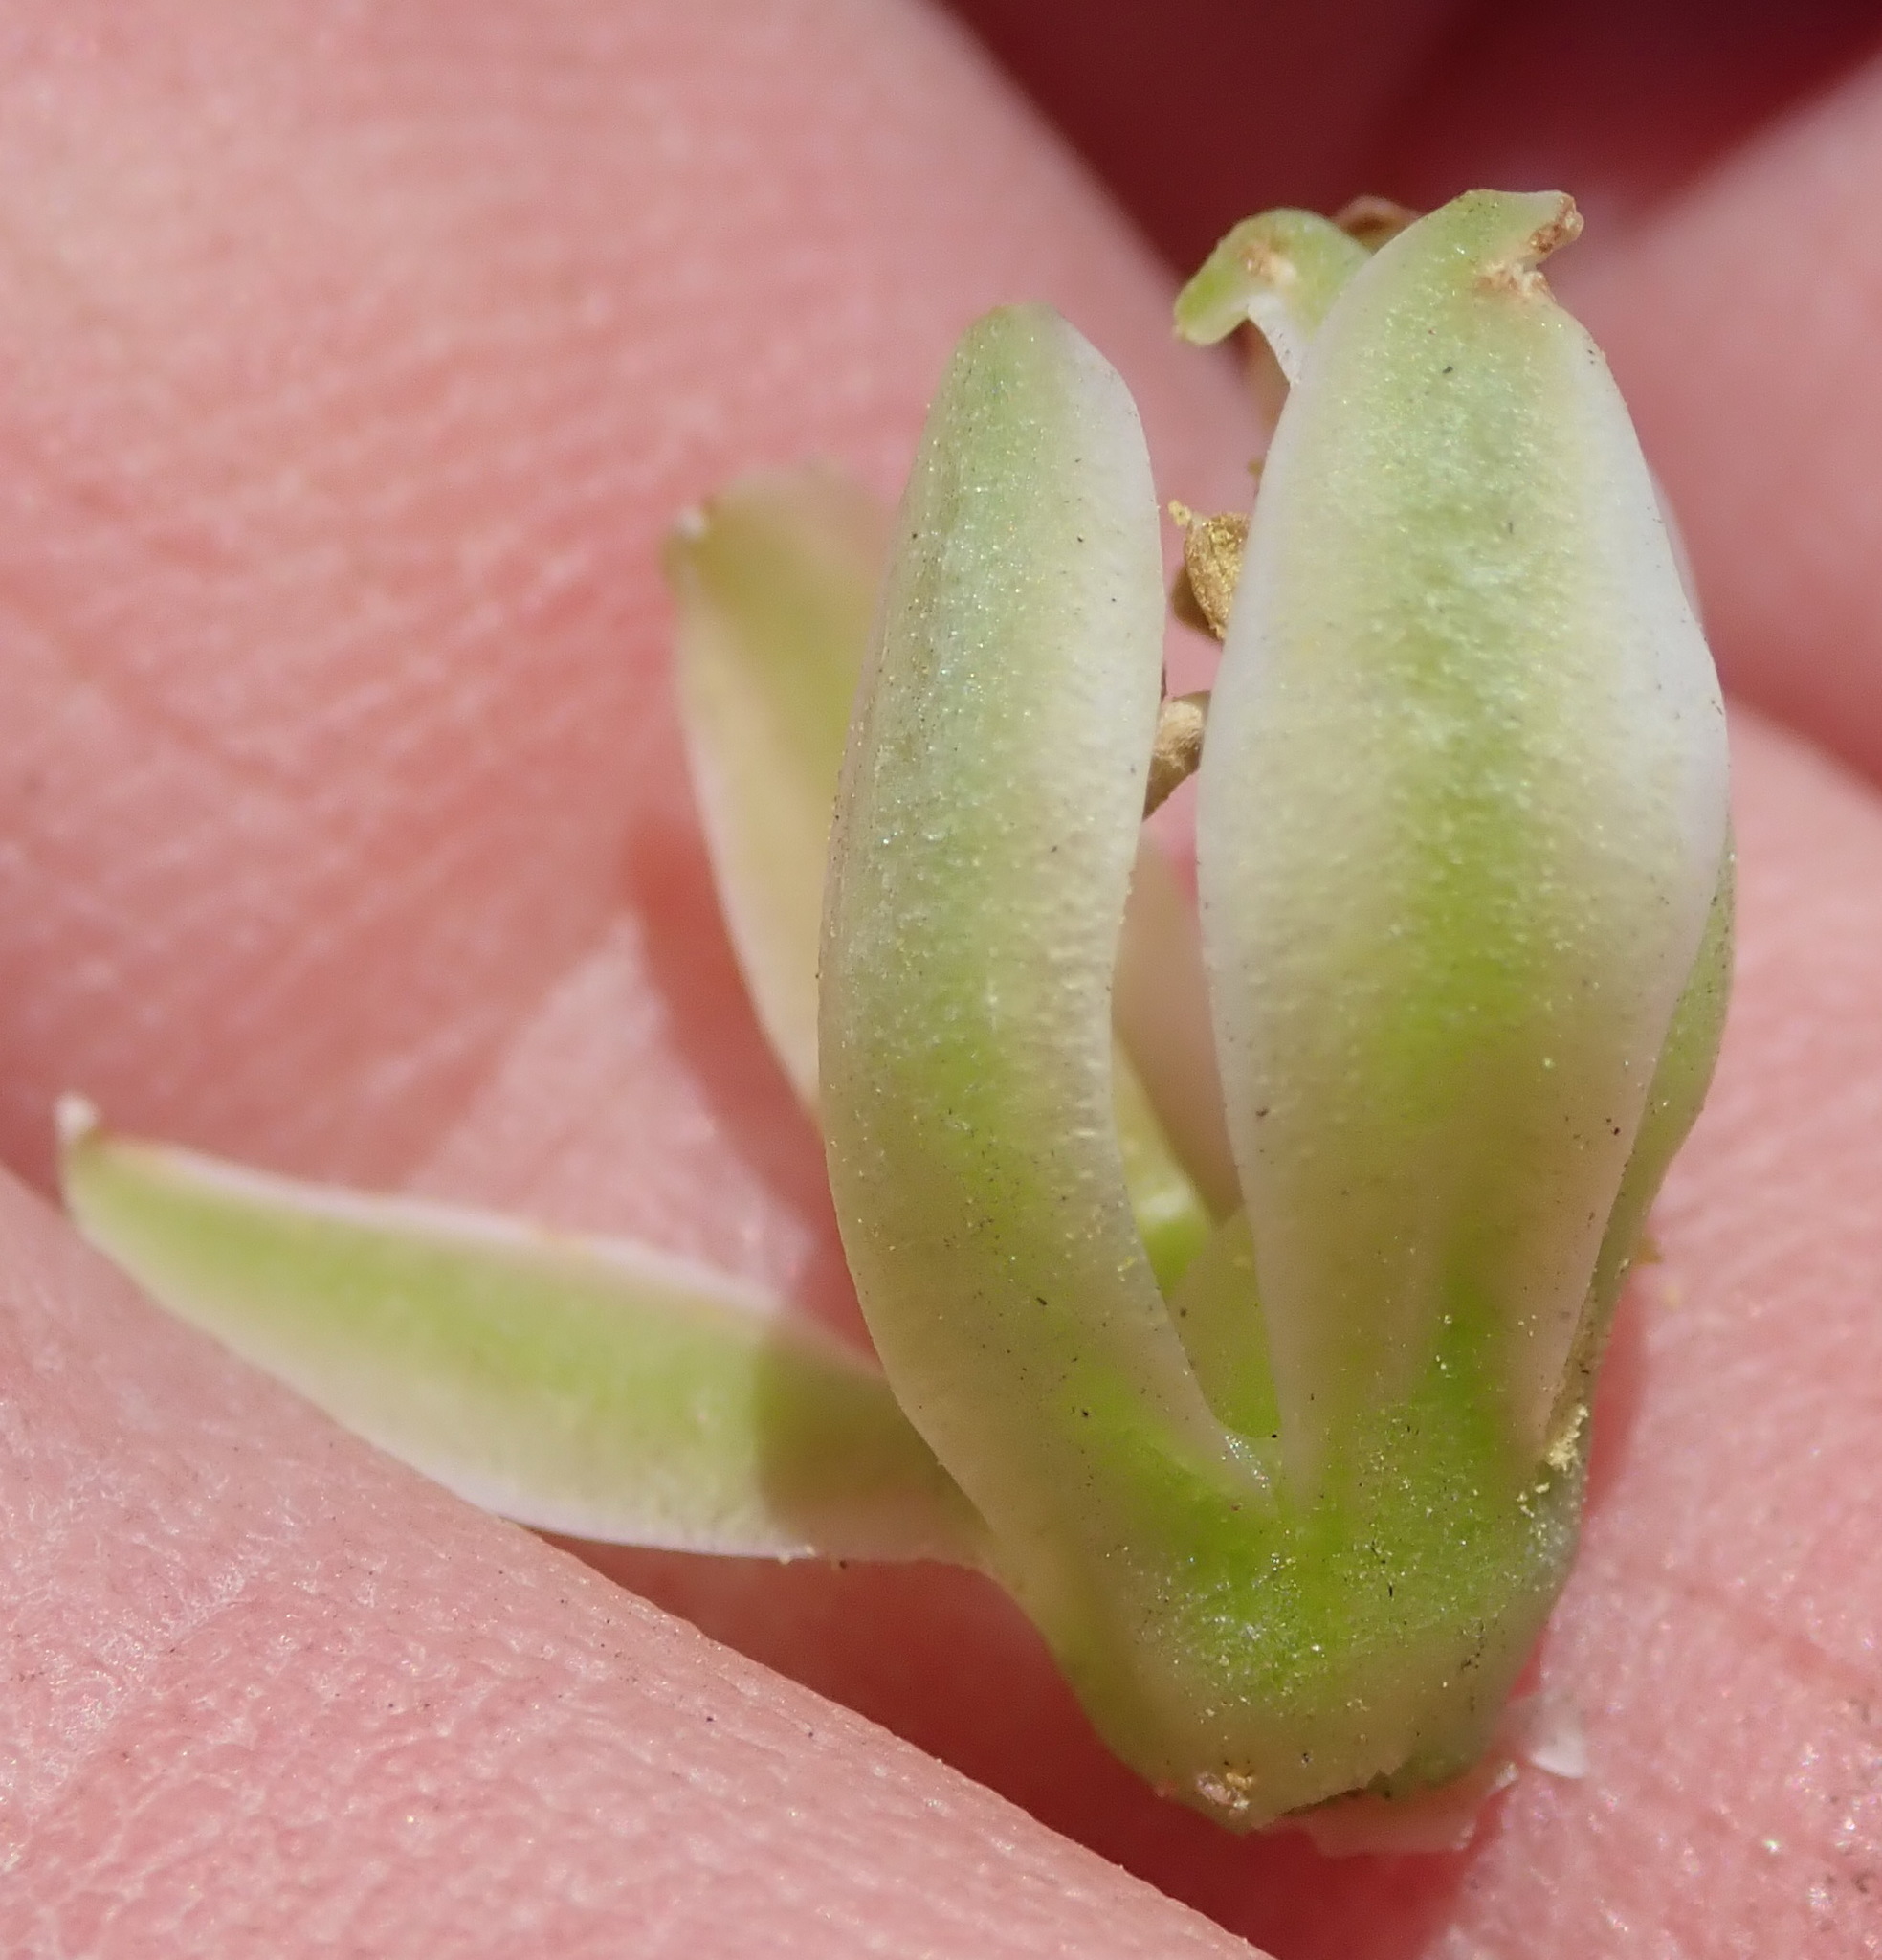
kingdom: Plantae
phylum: Tracheophyta
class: Liliopsida
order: Asparagales
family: Asparagaceae
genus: Eucomis
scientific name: Eucomis autumnalis
